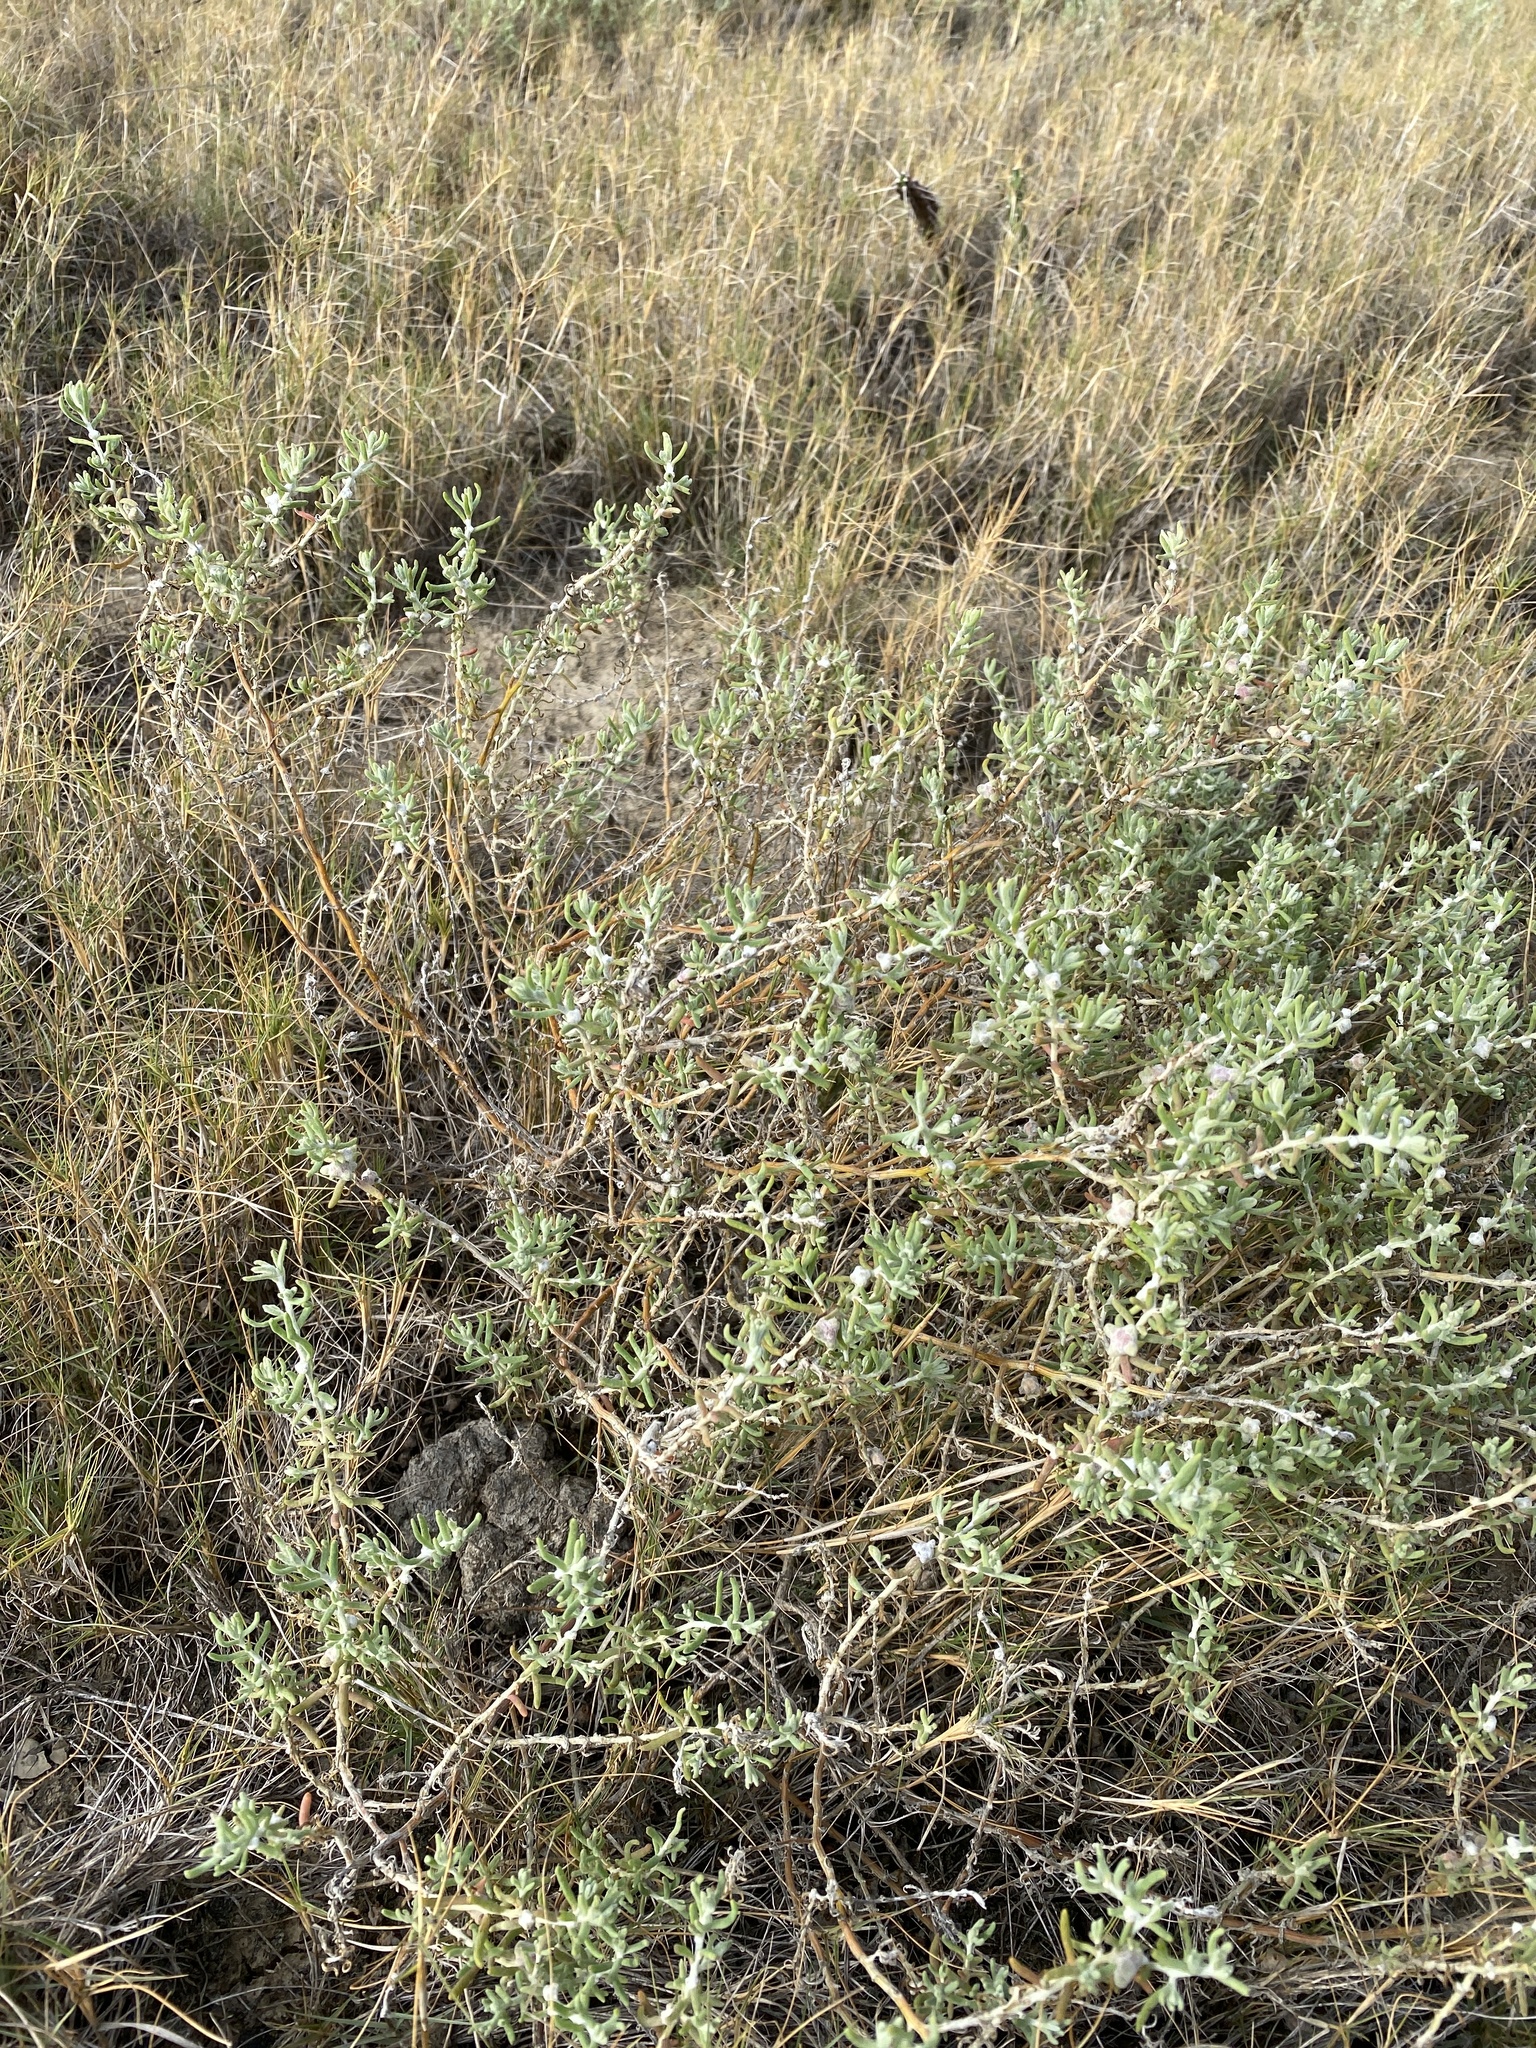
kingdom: Plantae
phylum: Tracheophyta
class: Magnoliopsida
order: Caryophyllales
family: Amaranthaceae
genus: Enchylaena
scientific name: Enchylaena tomentosa
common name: Ruby saltbush
